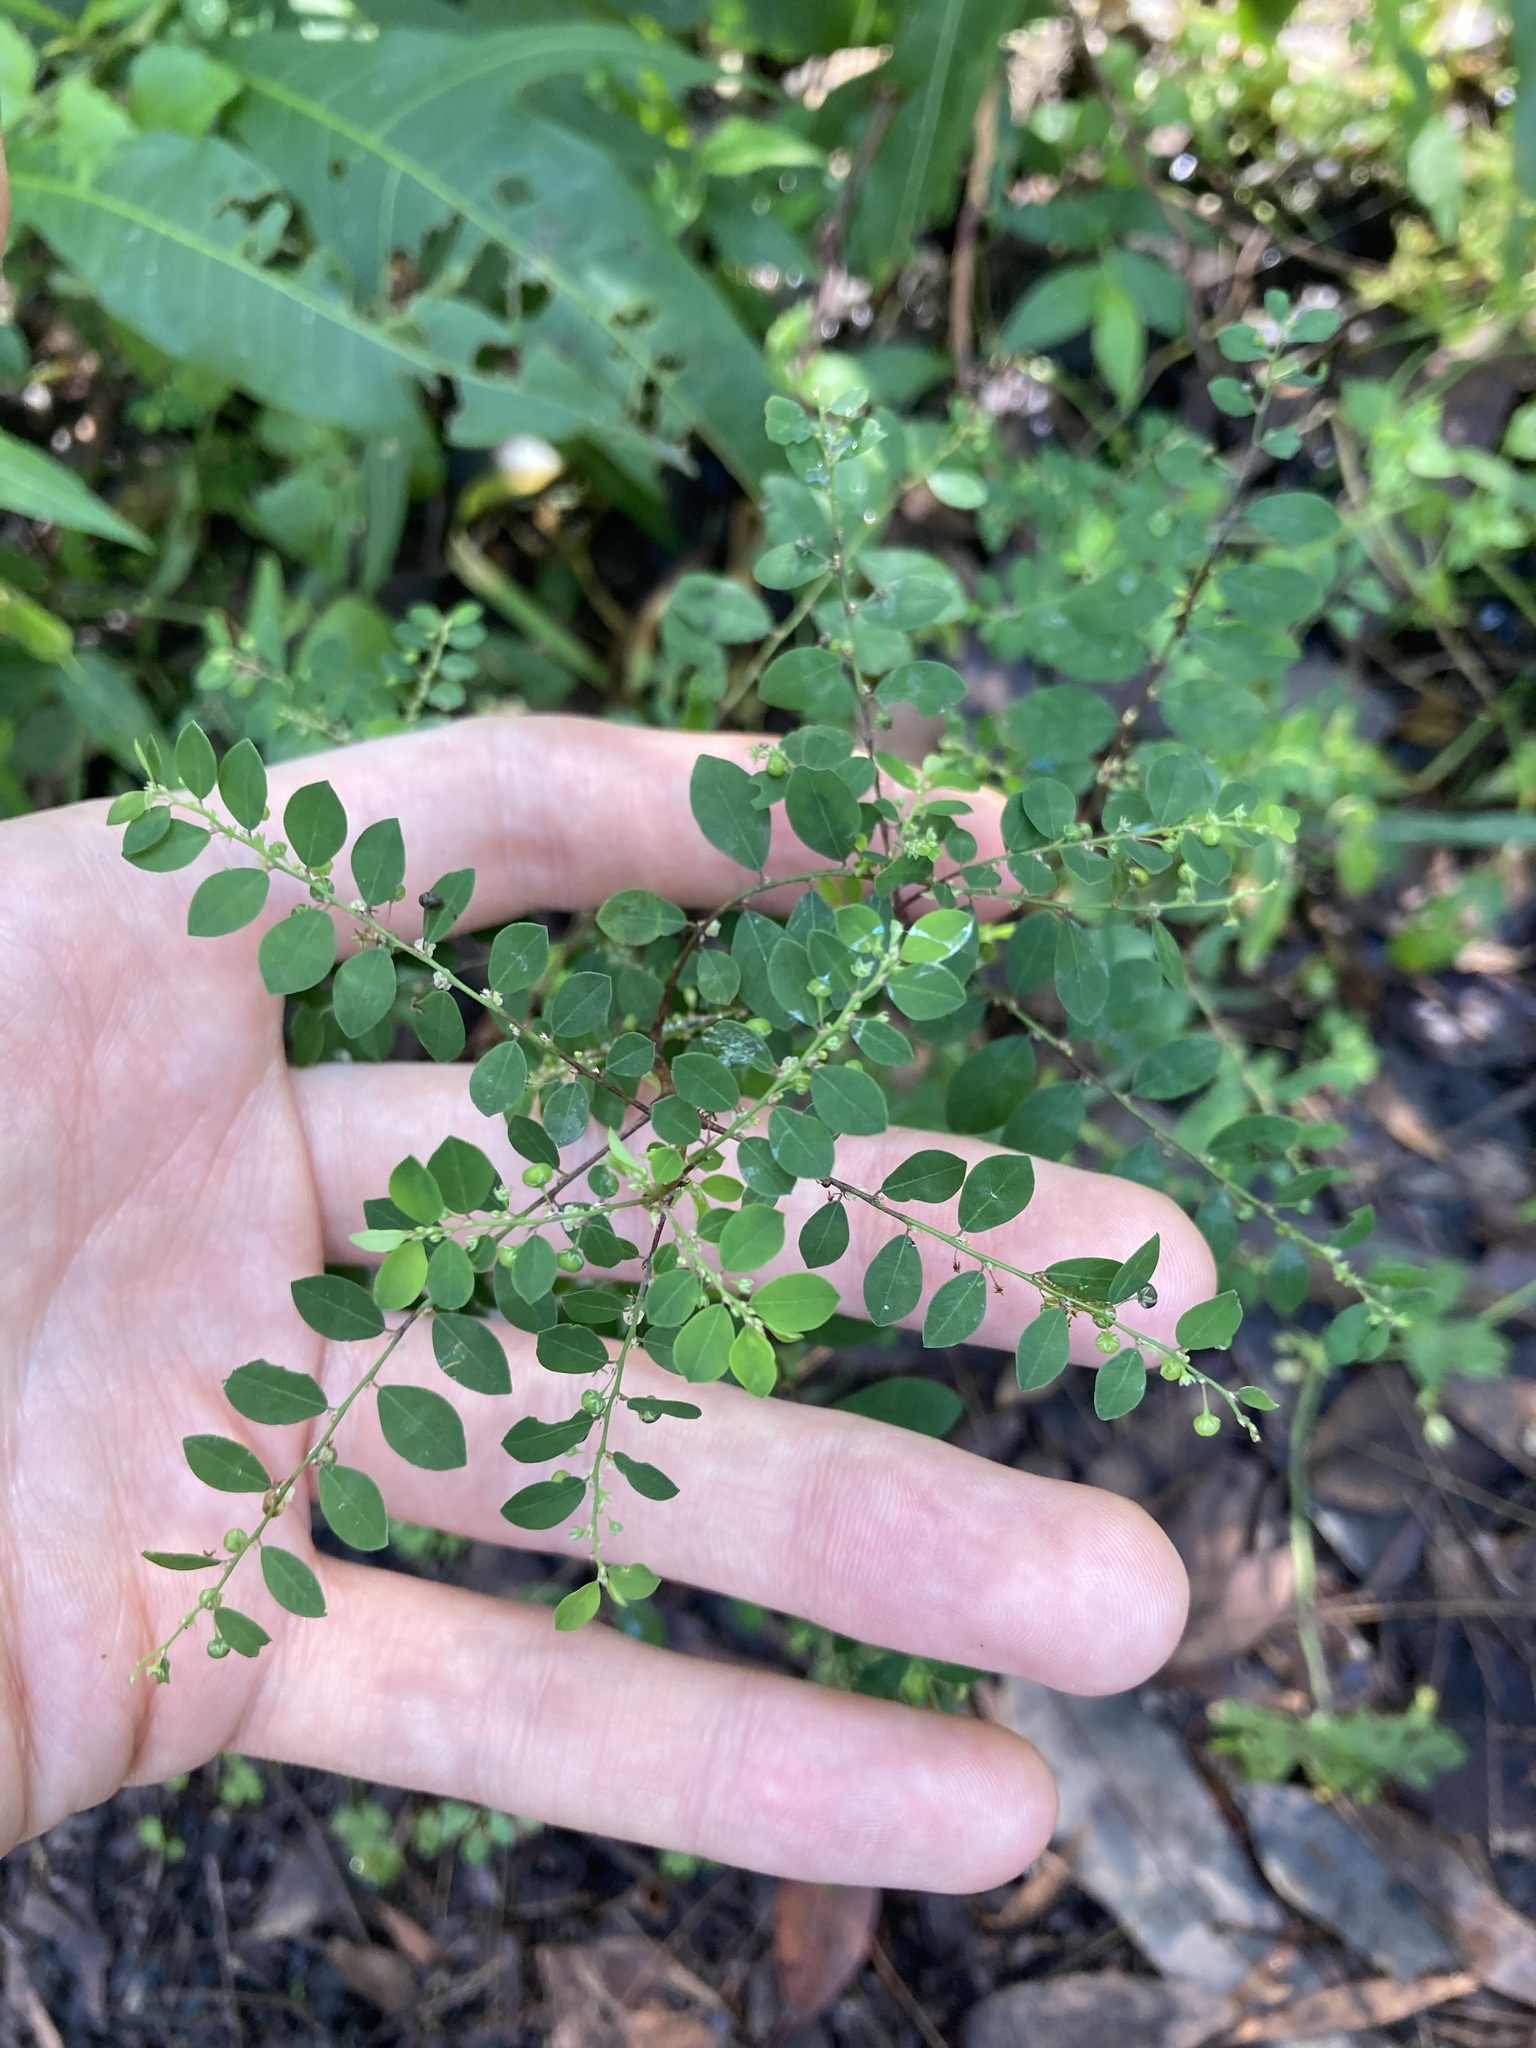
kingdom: Plantae
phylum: Tracheophyta
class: Magnoliopsida
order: Malpighiales
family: Phyllanthaceae
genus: Phyllanthus
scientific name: Phyllanthus tenellus
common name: Mascarene island leaf-flower
